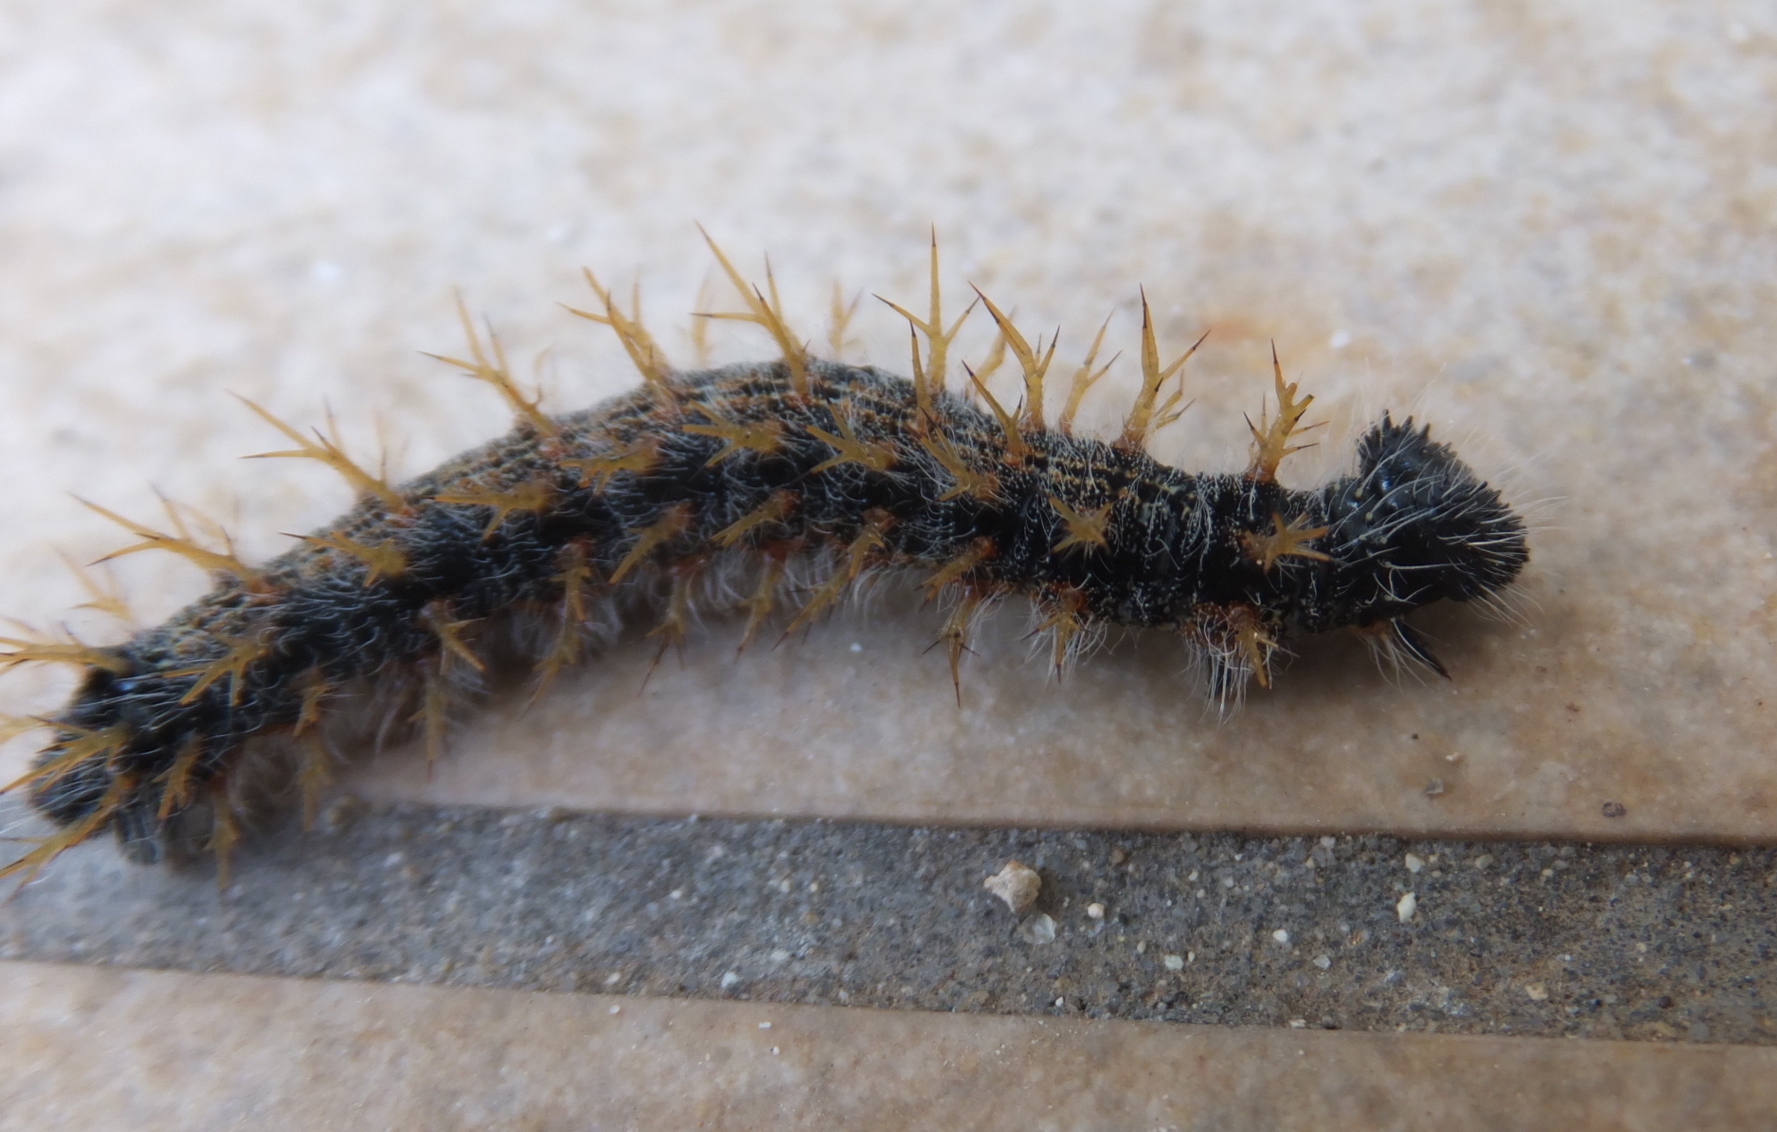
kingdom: Animalia
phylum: Arthropoda
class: Insecta
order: Lepidoptera
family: Nymphalidae
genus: Nymphalis
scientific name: Nymphalis polychloros
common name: Large tortoiseshell
